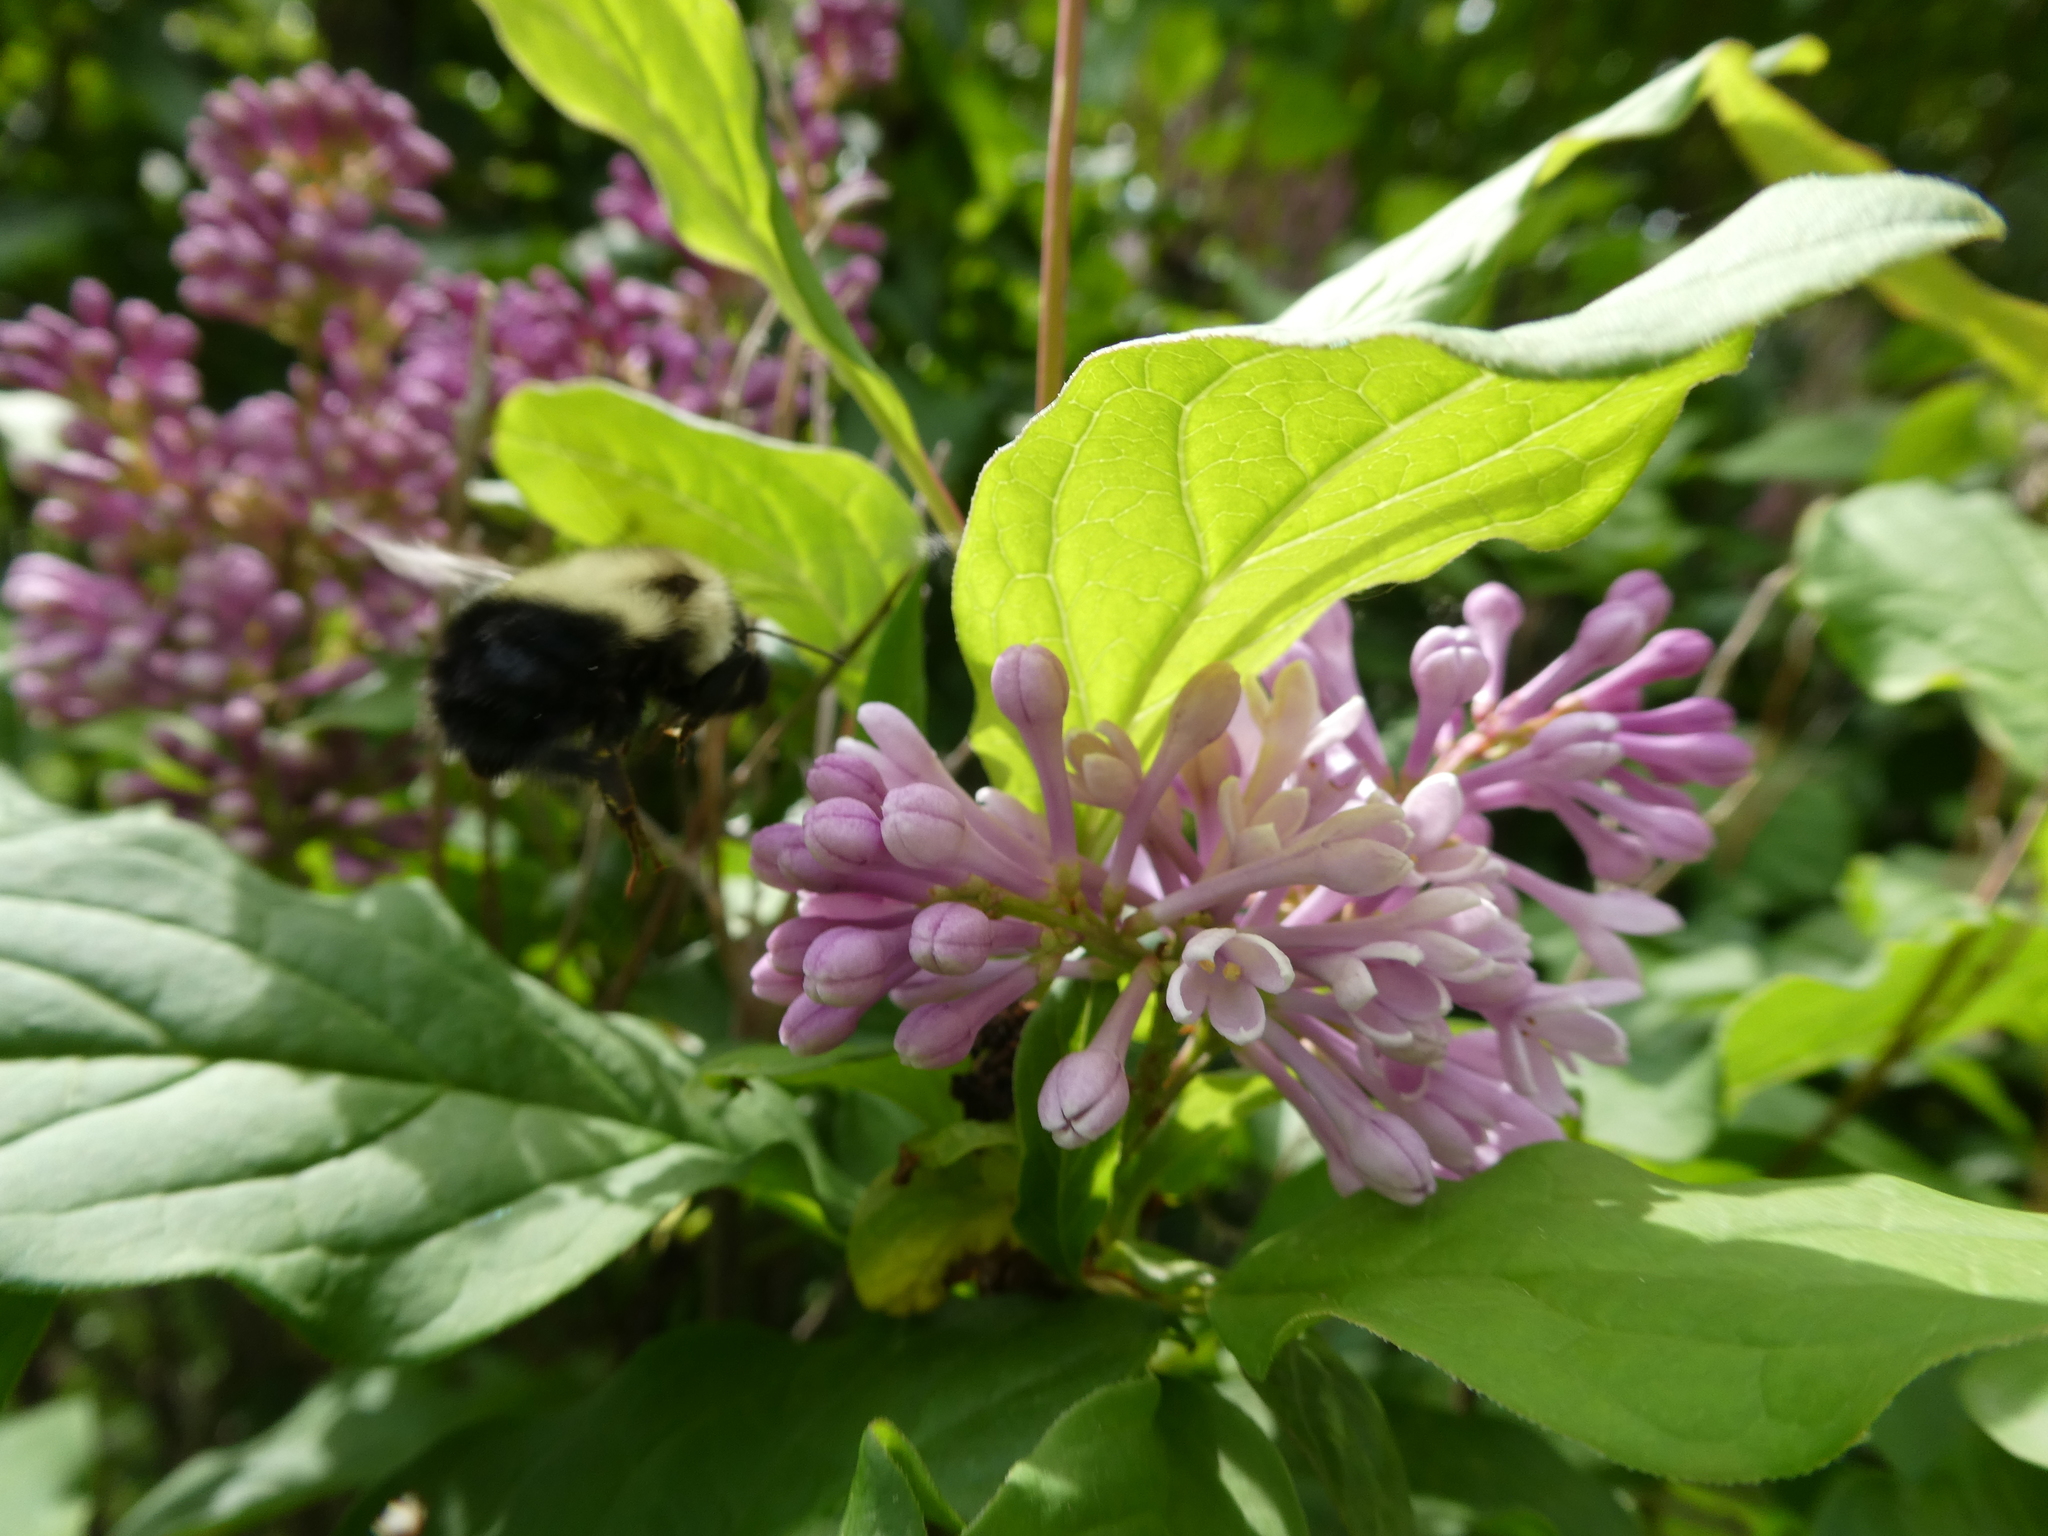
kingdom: Animalia
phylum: Arthropoda
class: Insecta
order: Hymenoptera
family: Apidae
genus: Pyrobombus
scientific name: Pyrobombus
